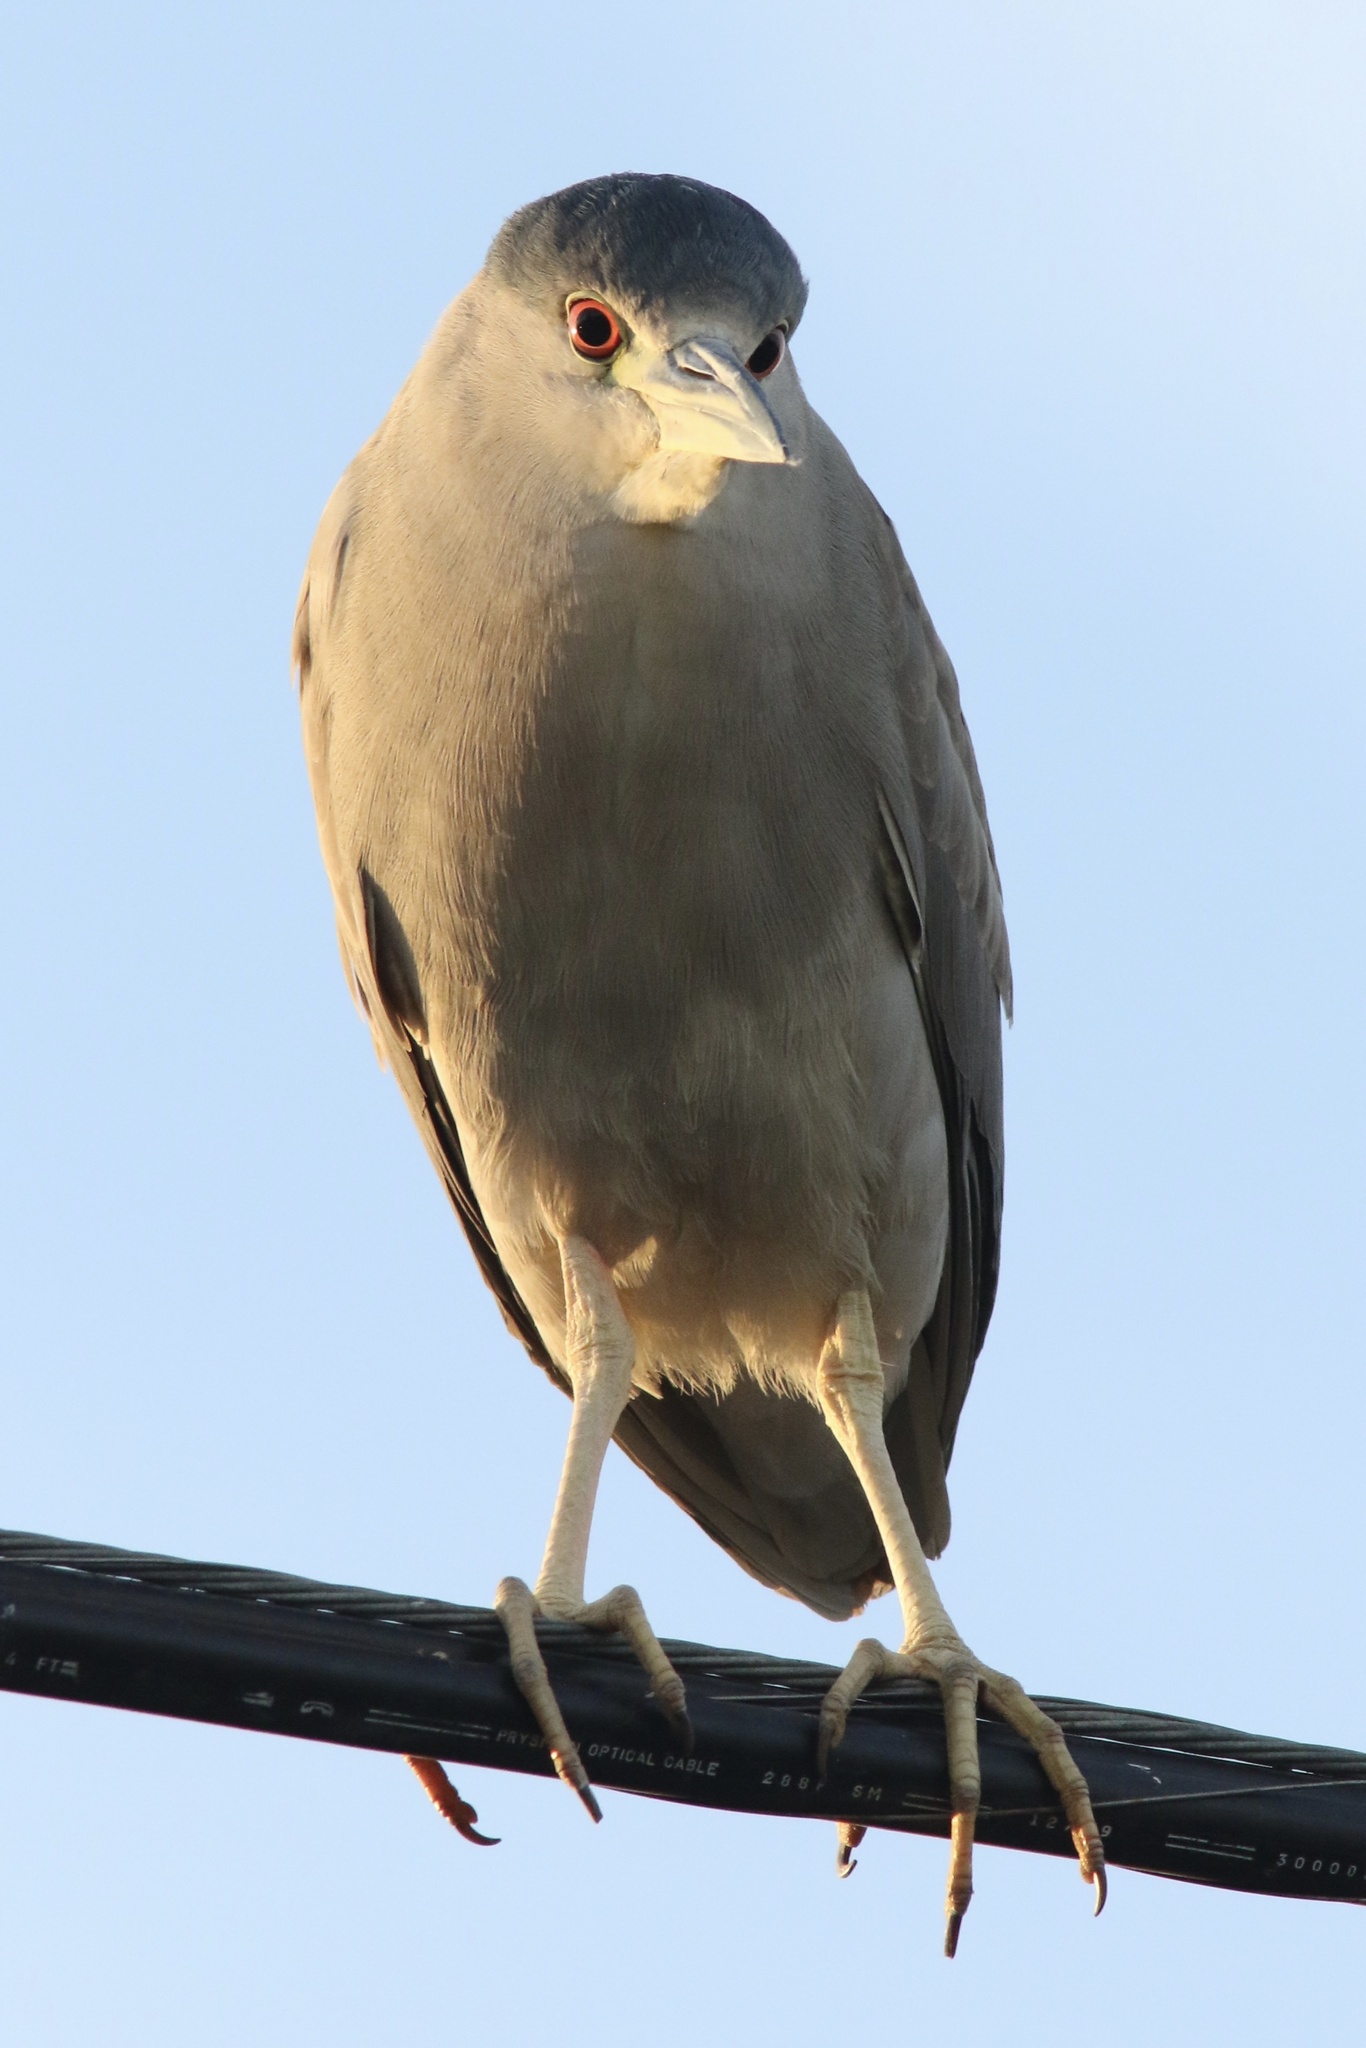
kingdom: Animalia
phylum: Chordata
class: Aves
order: Pelecaniformes
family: Ardeidae
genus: Nycticorax
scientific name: Nycticorax nycticorax
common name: Black-crowned night heron
